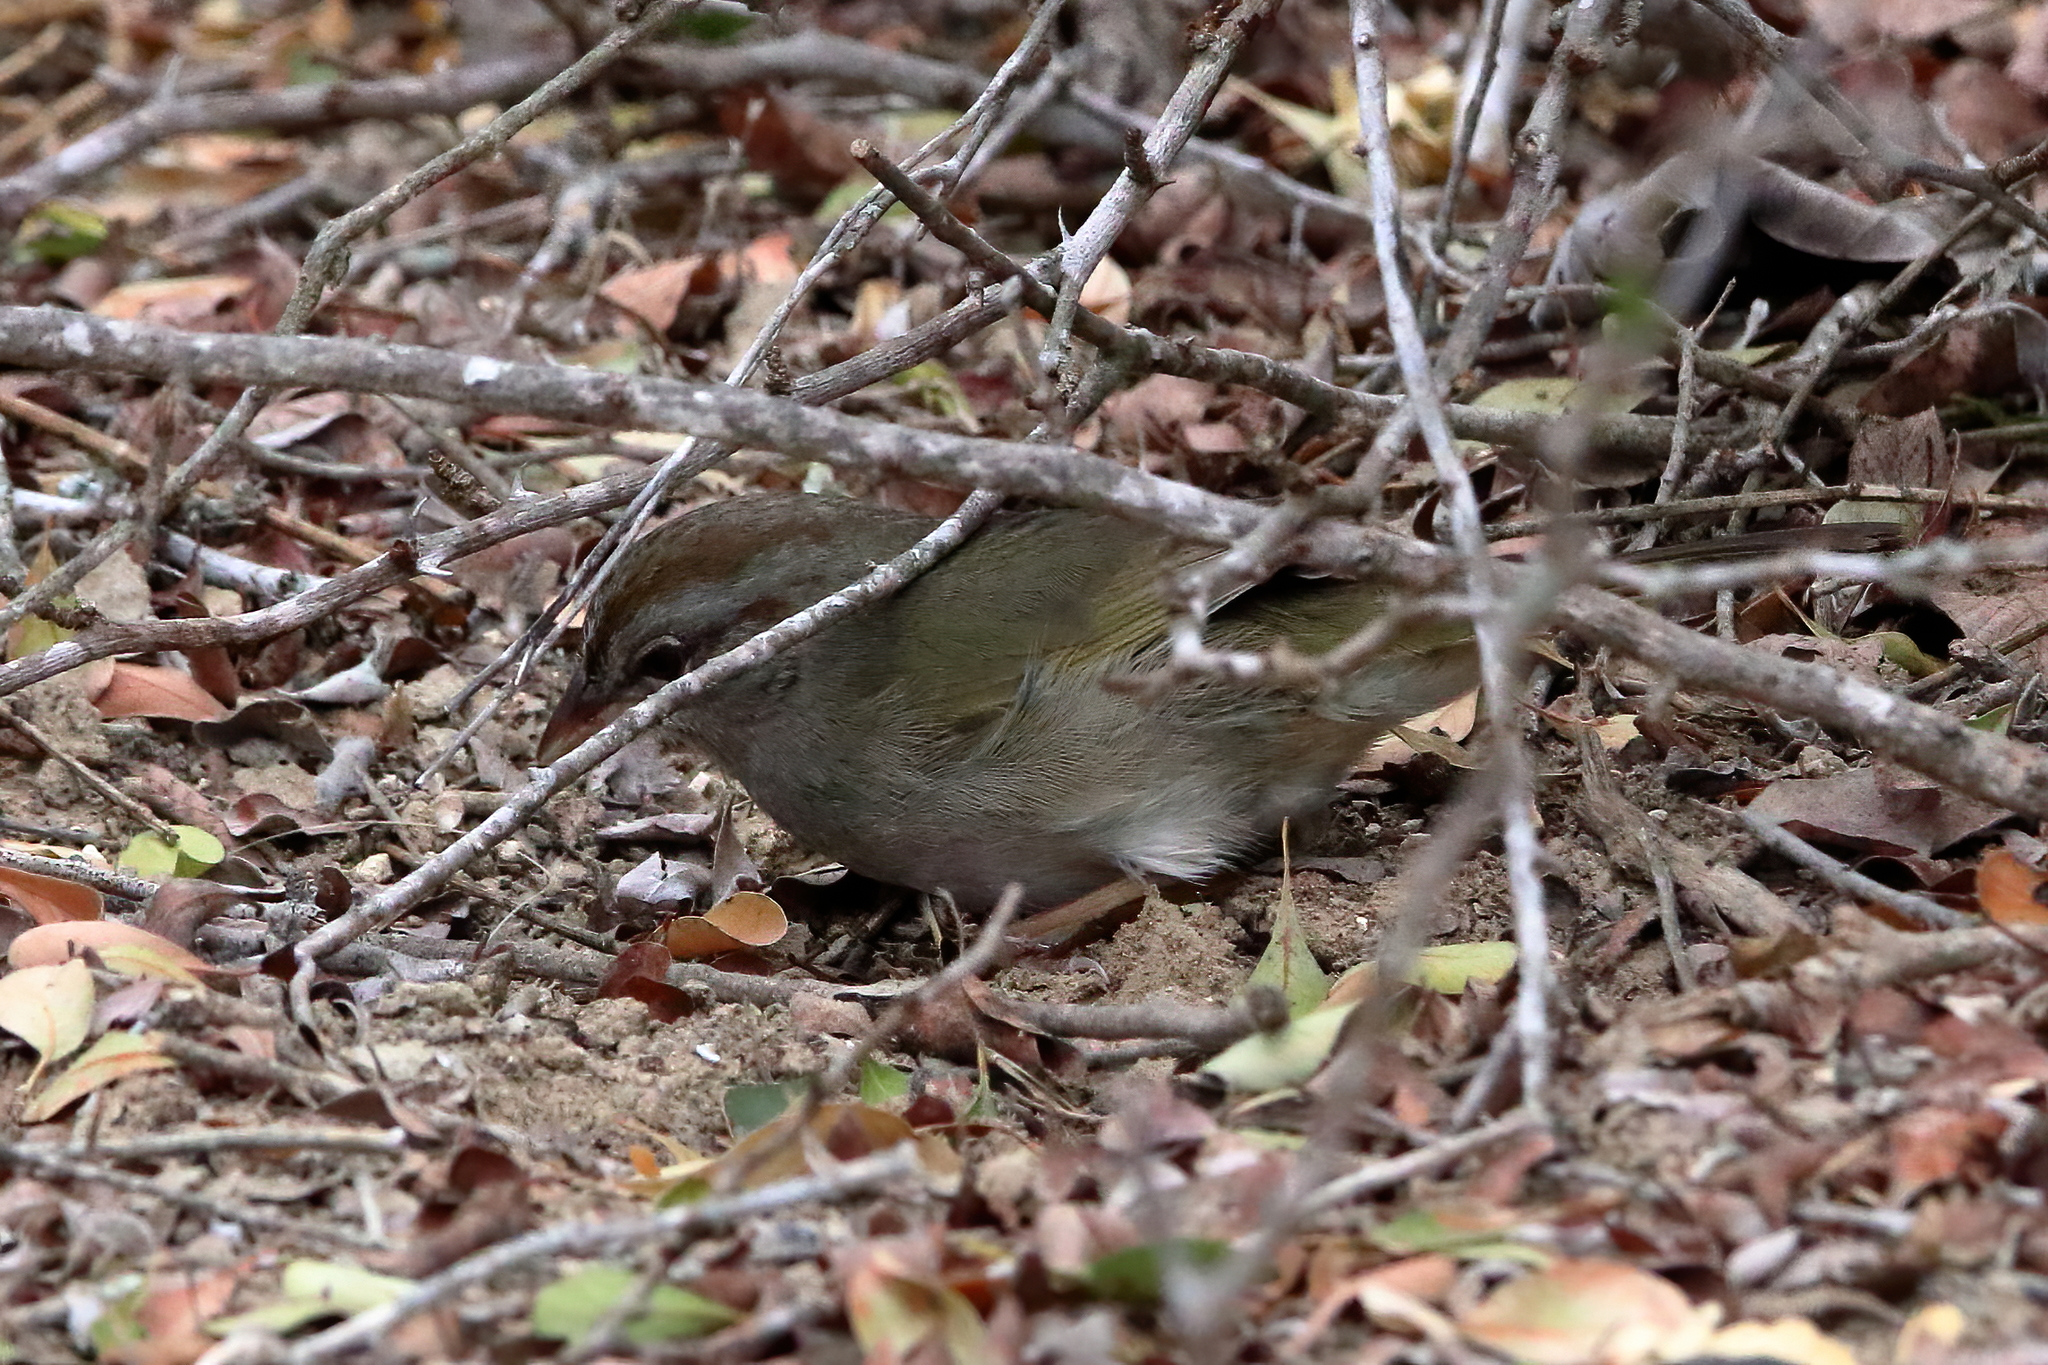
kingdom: Animalia
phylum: Chordata
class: Aves
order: Passeriformes
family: Passerellidae
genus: Arremonops
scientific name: Arremonops rufivirgatus
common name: Olive sparrow
